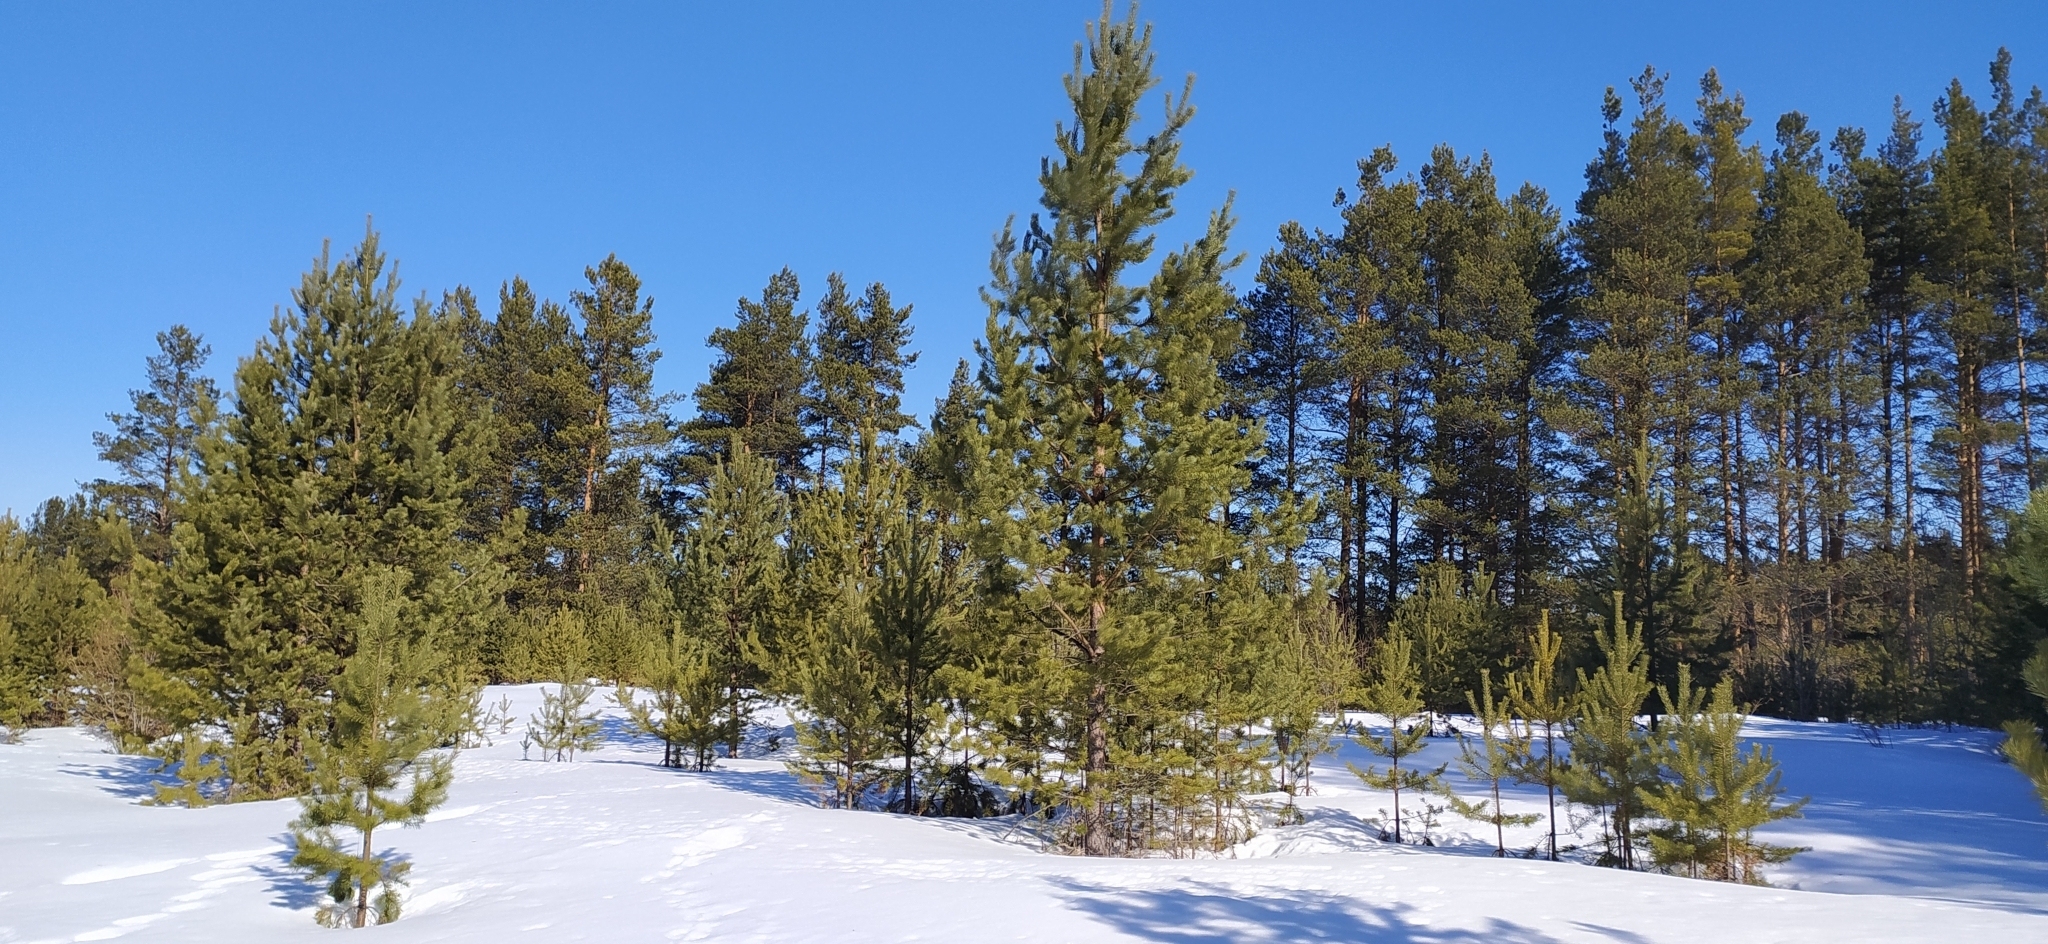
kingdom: Plantae
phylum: Tracheophyta
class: Pinopsida
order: Pinales
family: Pinaceae
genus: Pinus
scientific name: Pinus sylvestris
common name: Scots pine
